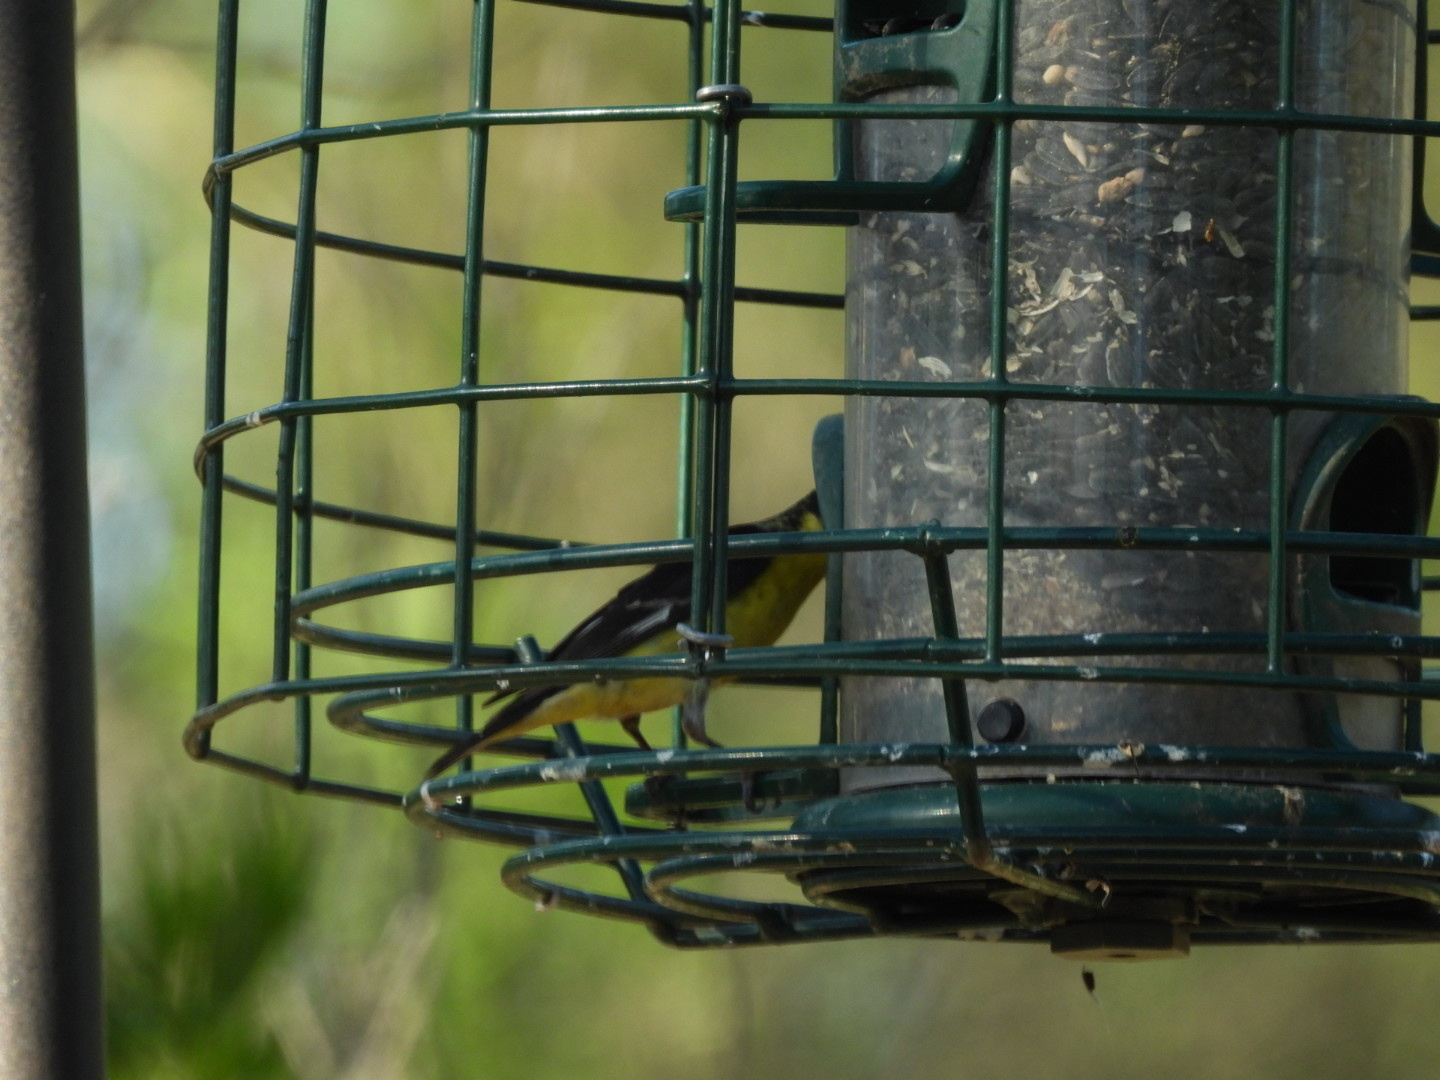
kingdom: Animalia
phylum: Chordata
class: Aves
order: Passeriformes
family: Fringillidae
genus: Spinus
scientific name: Spinus psaltria
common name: Lesser goldfinch
